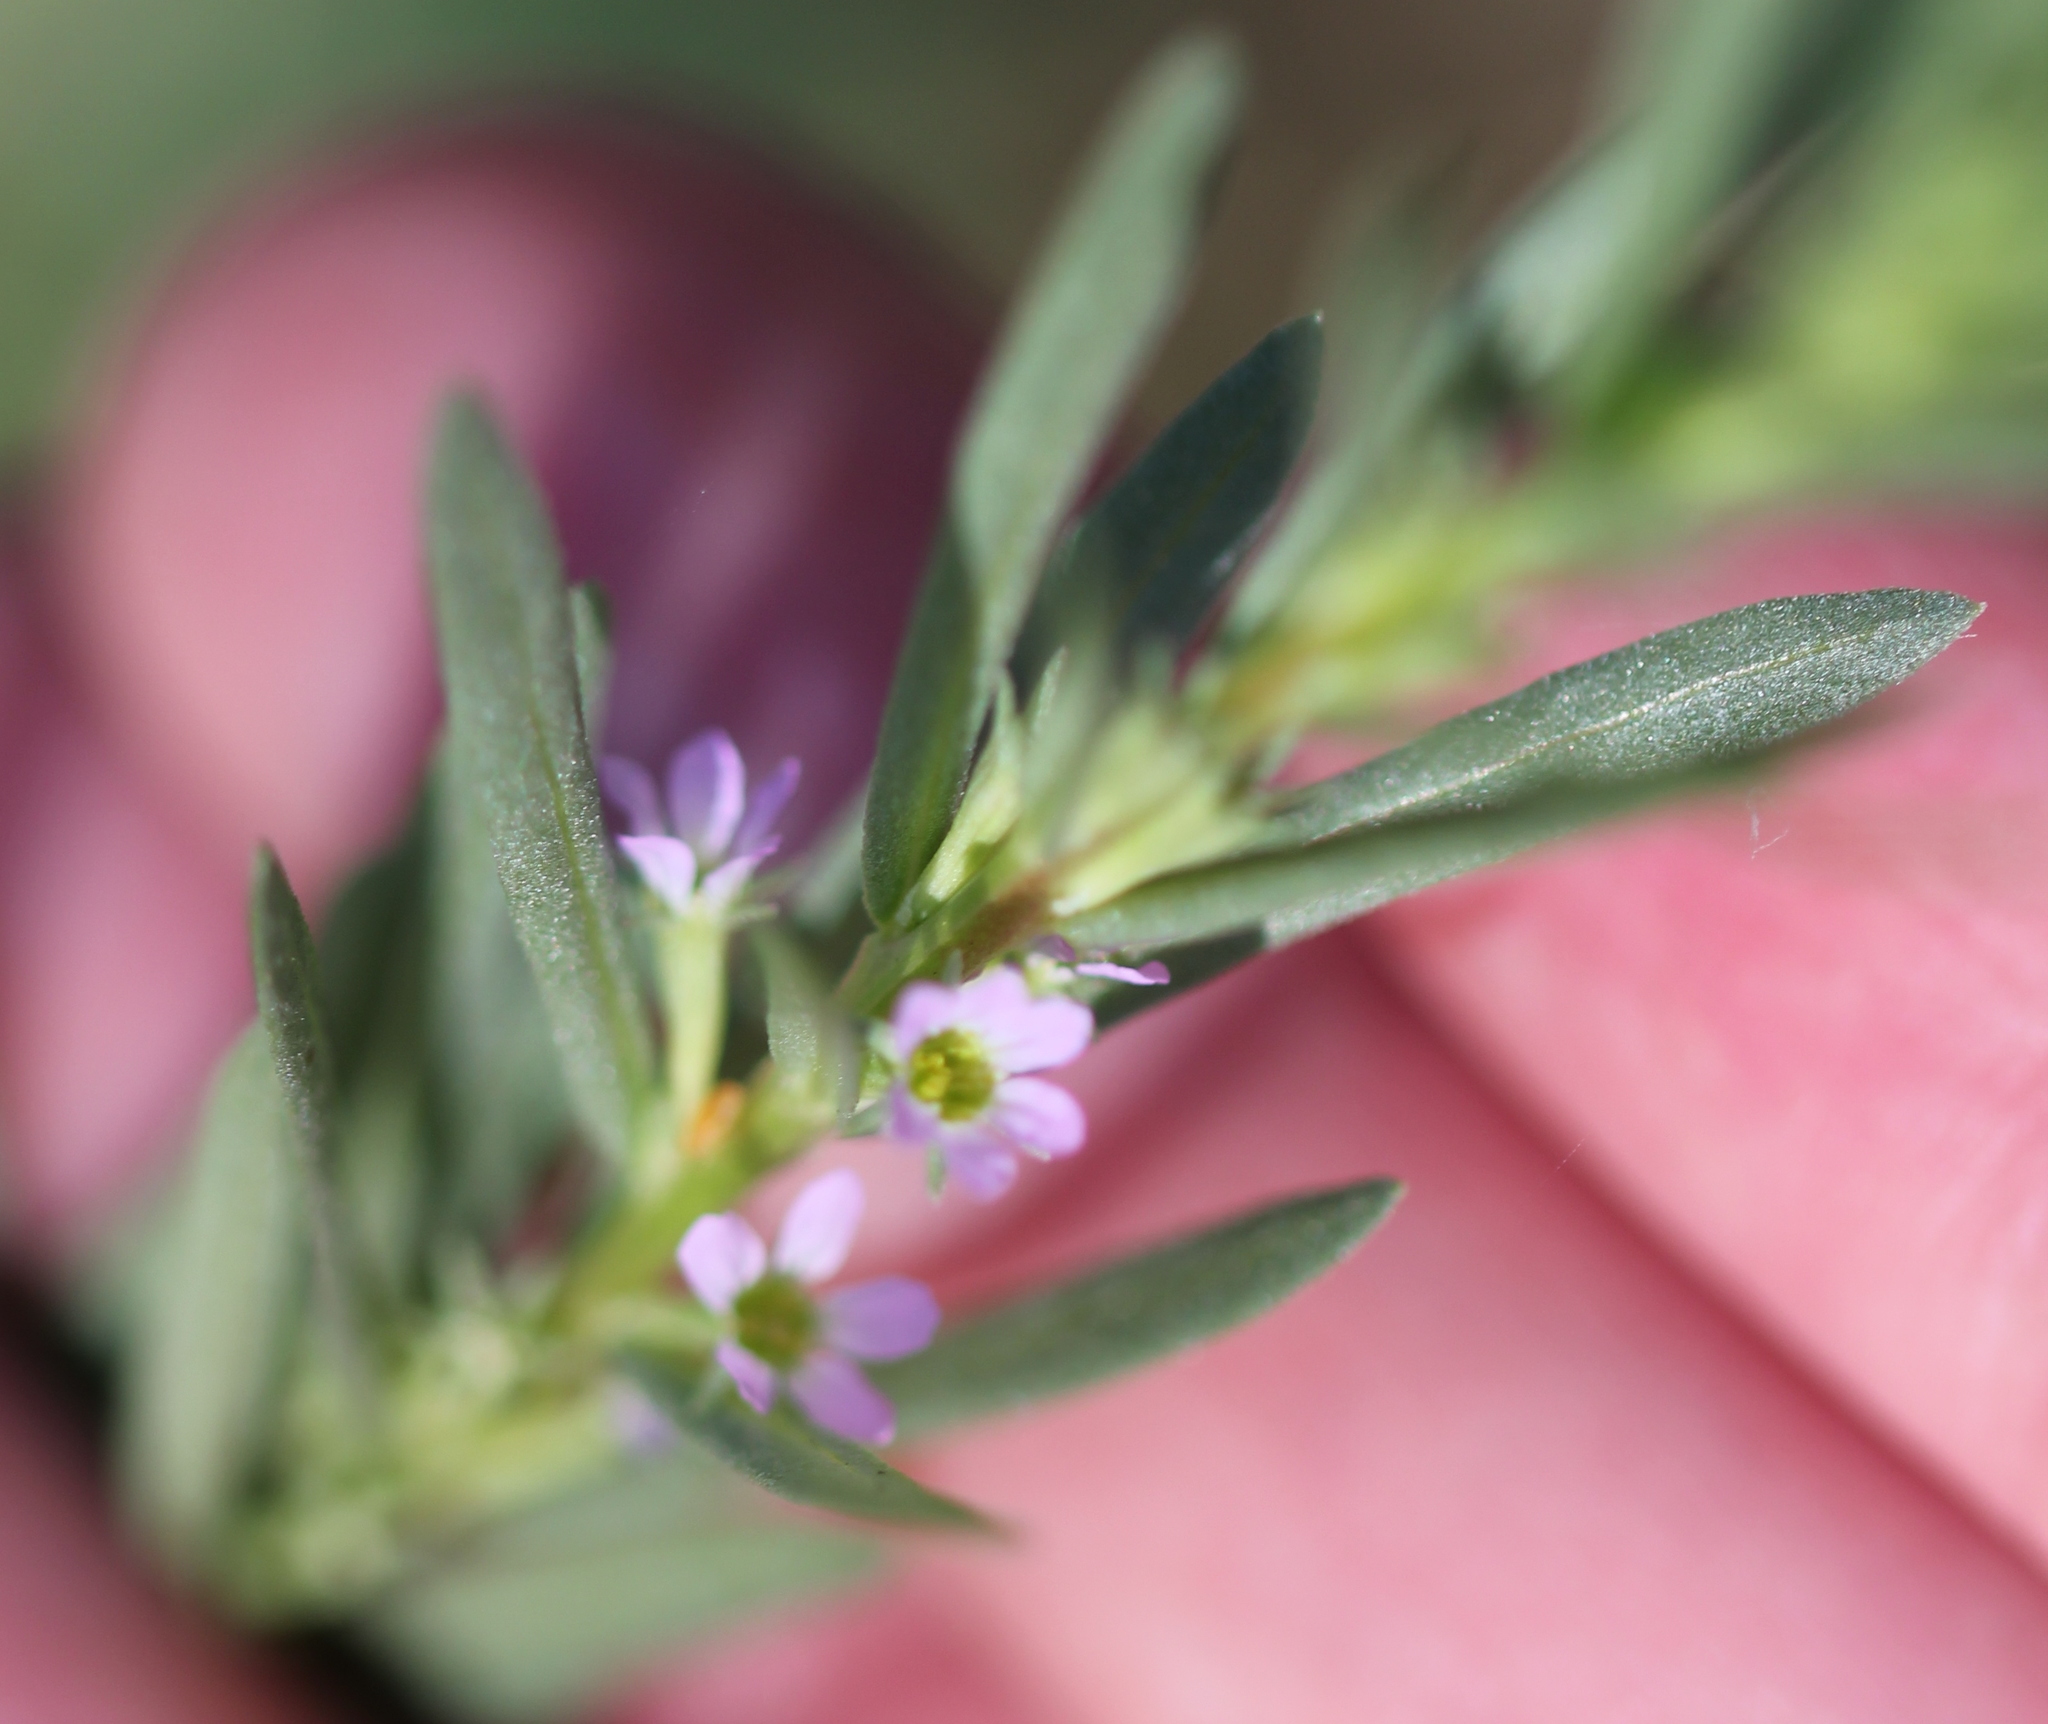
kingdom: Plantae
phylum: Tracheophyta
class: Magnoliopsida
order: Myrtales
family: Lythraceae
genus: Lythrum
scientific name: Lythrum hyssopifolia
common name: Grass-poly
